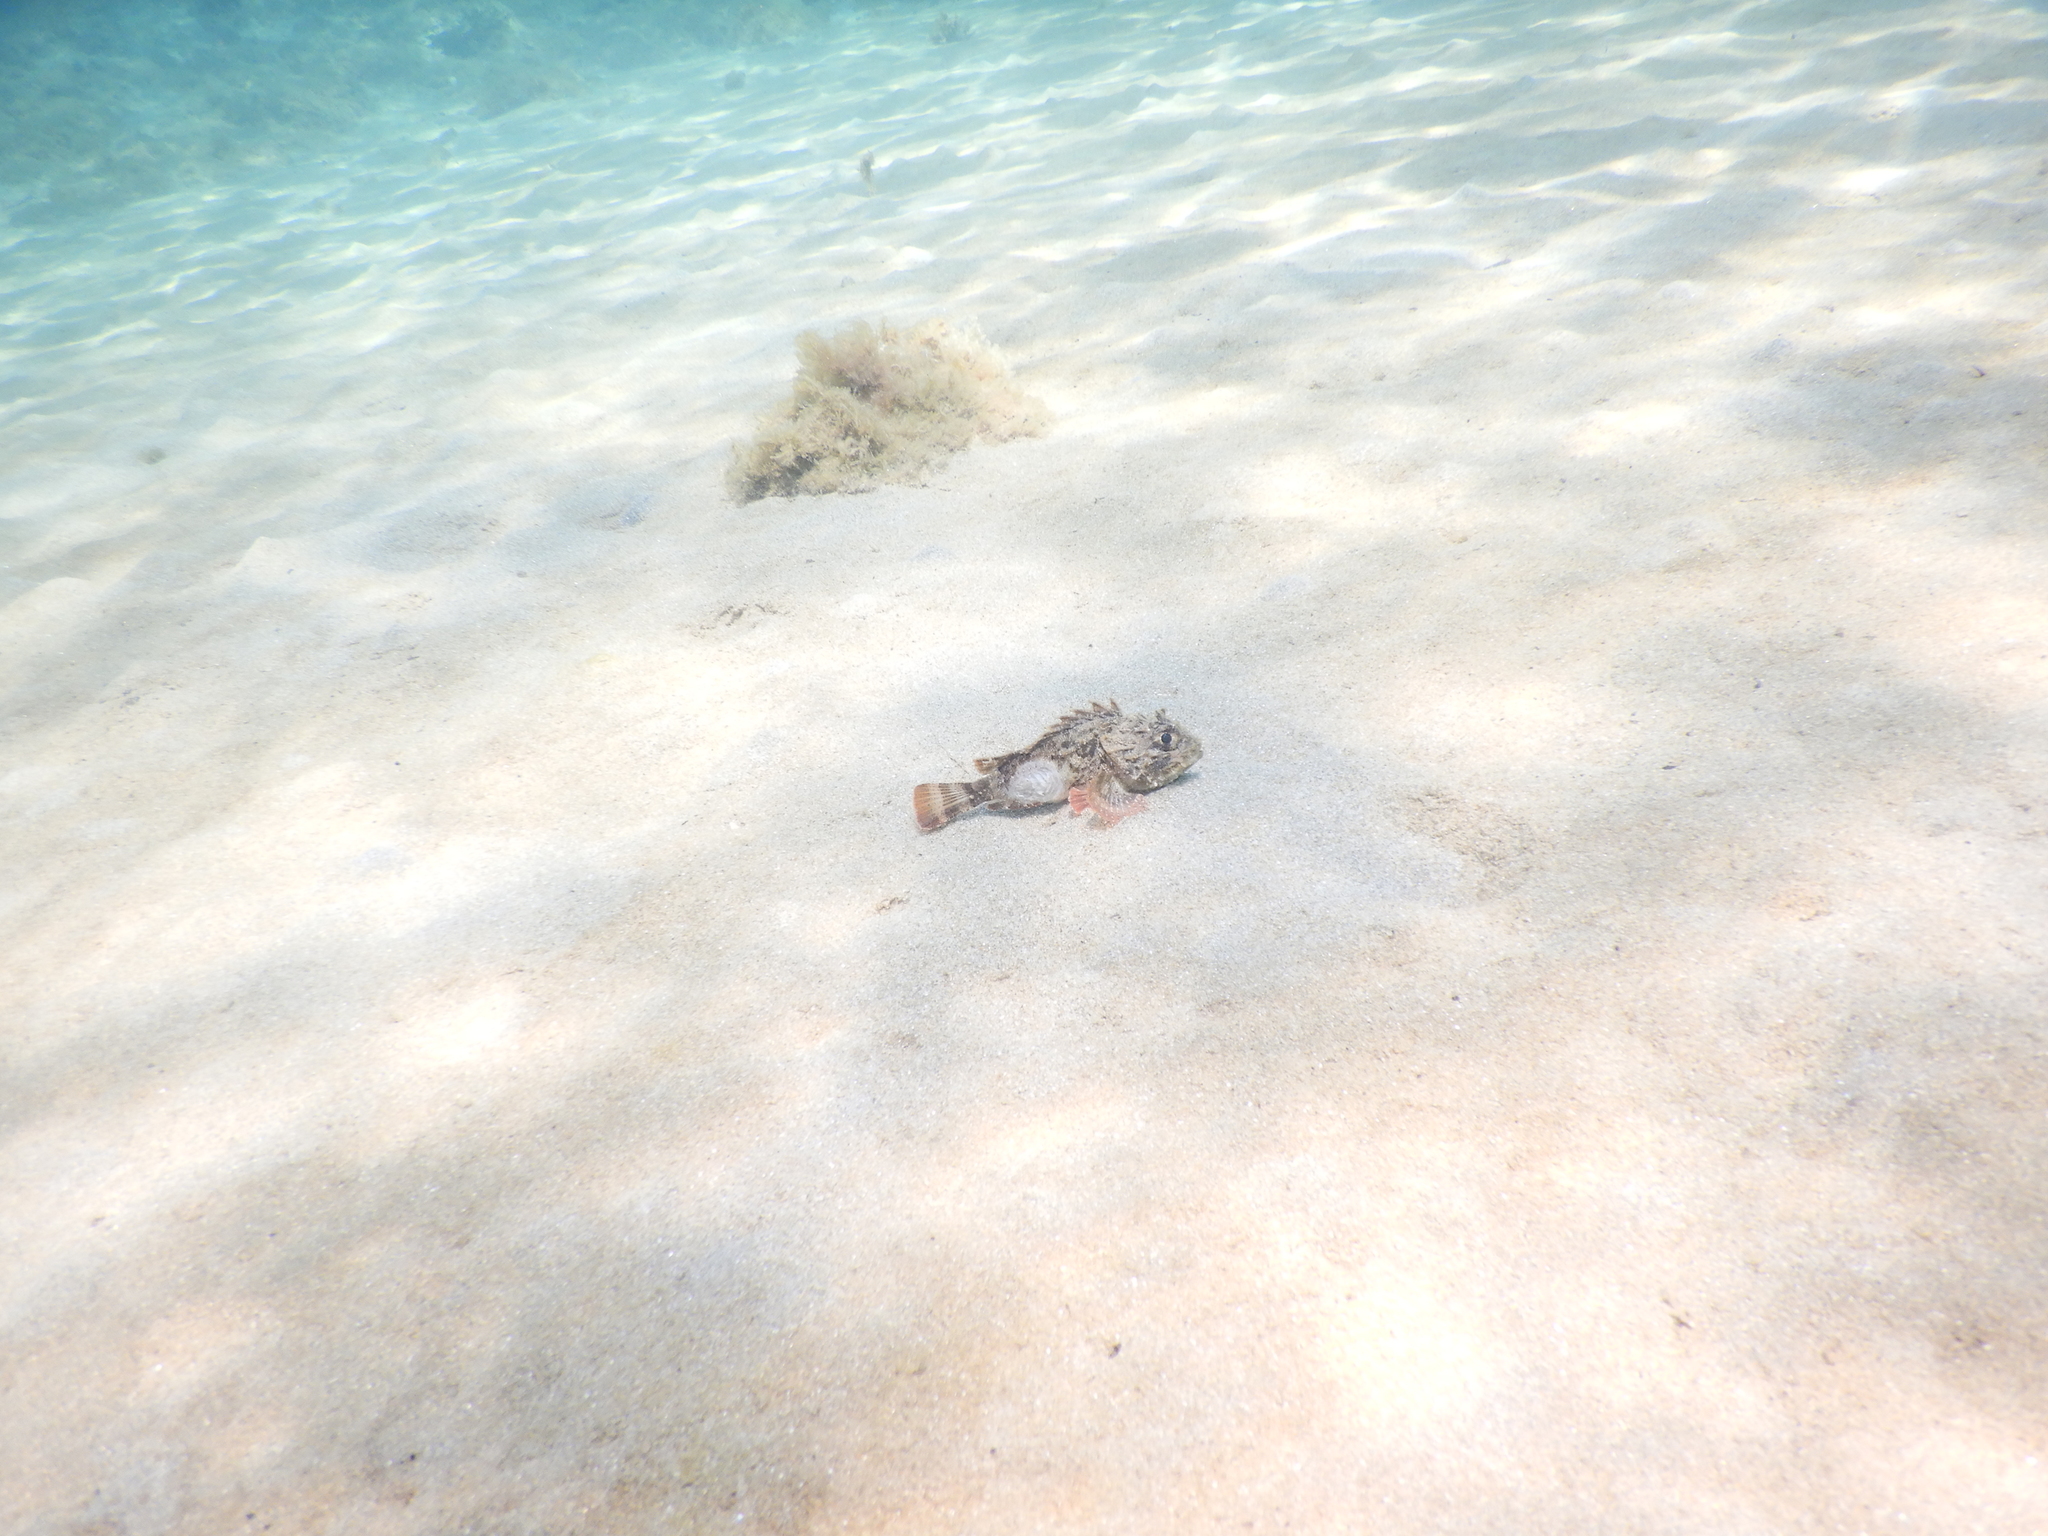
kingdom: Animalia
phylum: Chordata
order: Scorpaeniformes
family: Scorpaenidae
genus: Scorpaena
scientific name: Scorpaena porcus
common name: Black scorpionfish
